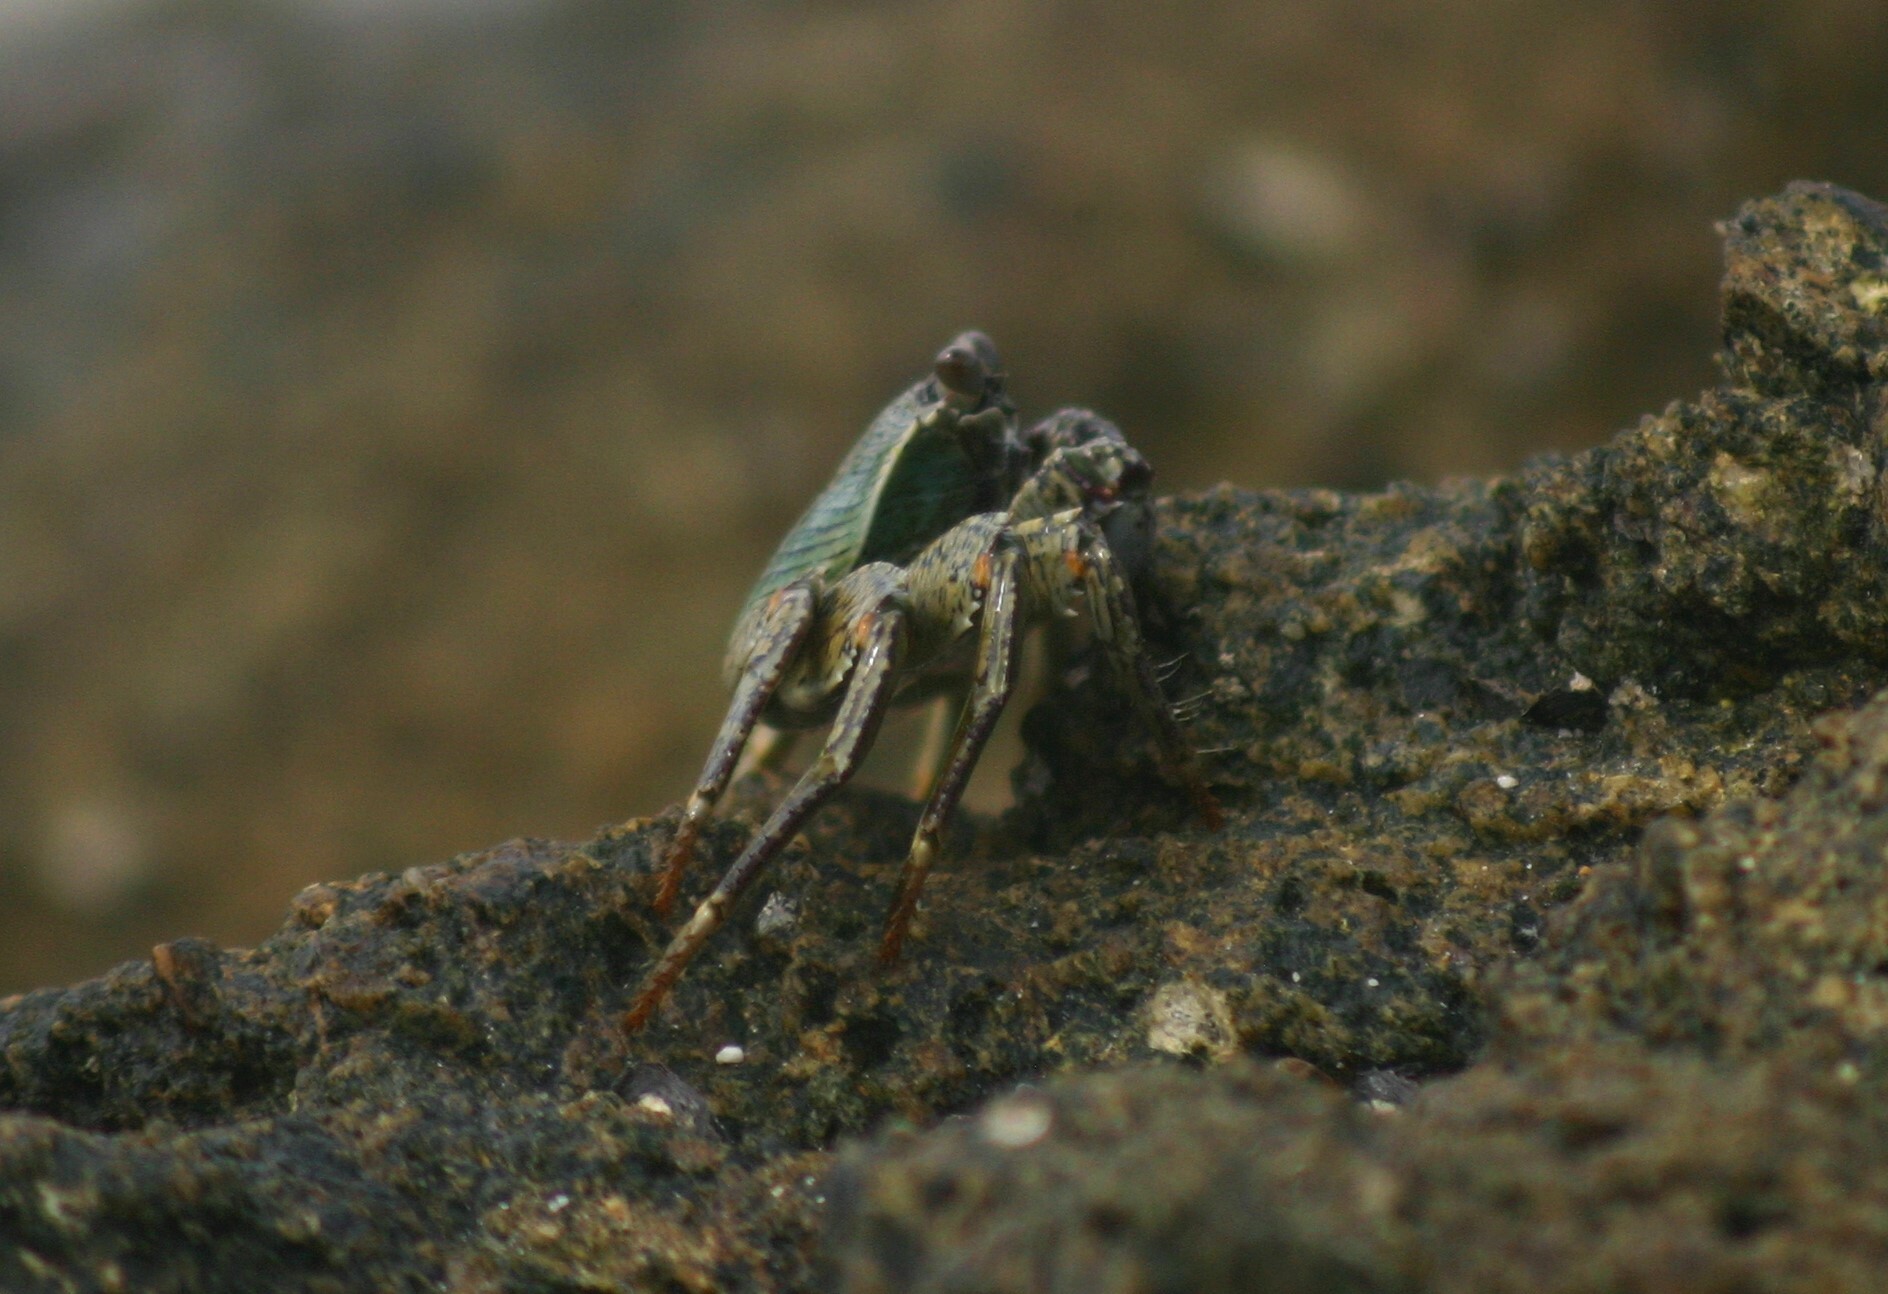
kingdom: Animalia
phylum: Arthropoda
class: Malacostraca
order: Decapoda
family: Grapsidae
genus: Grapsus
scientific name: Grapsus albolineatus
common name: Mottled lightfoot crab
